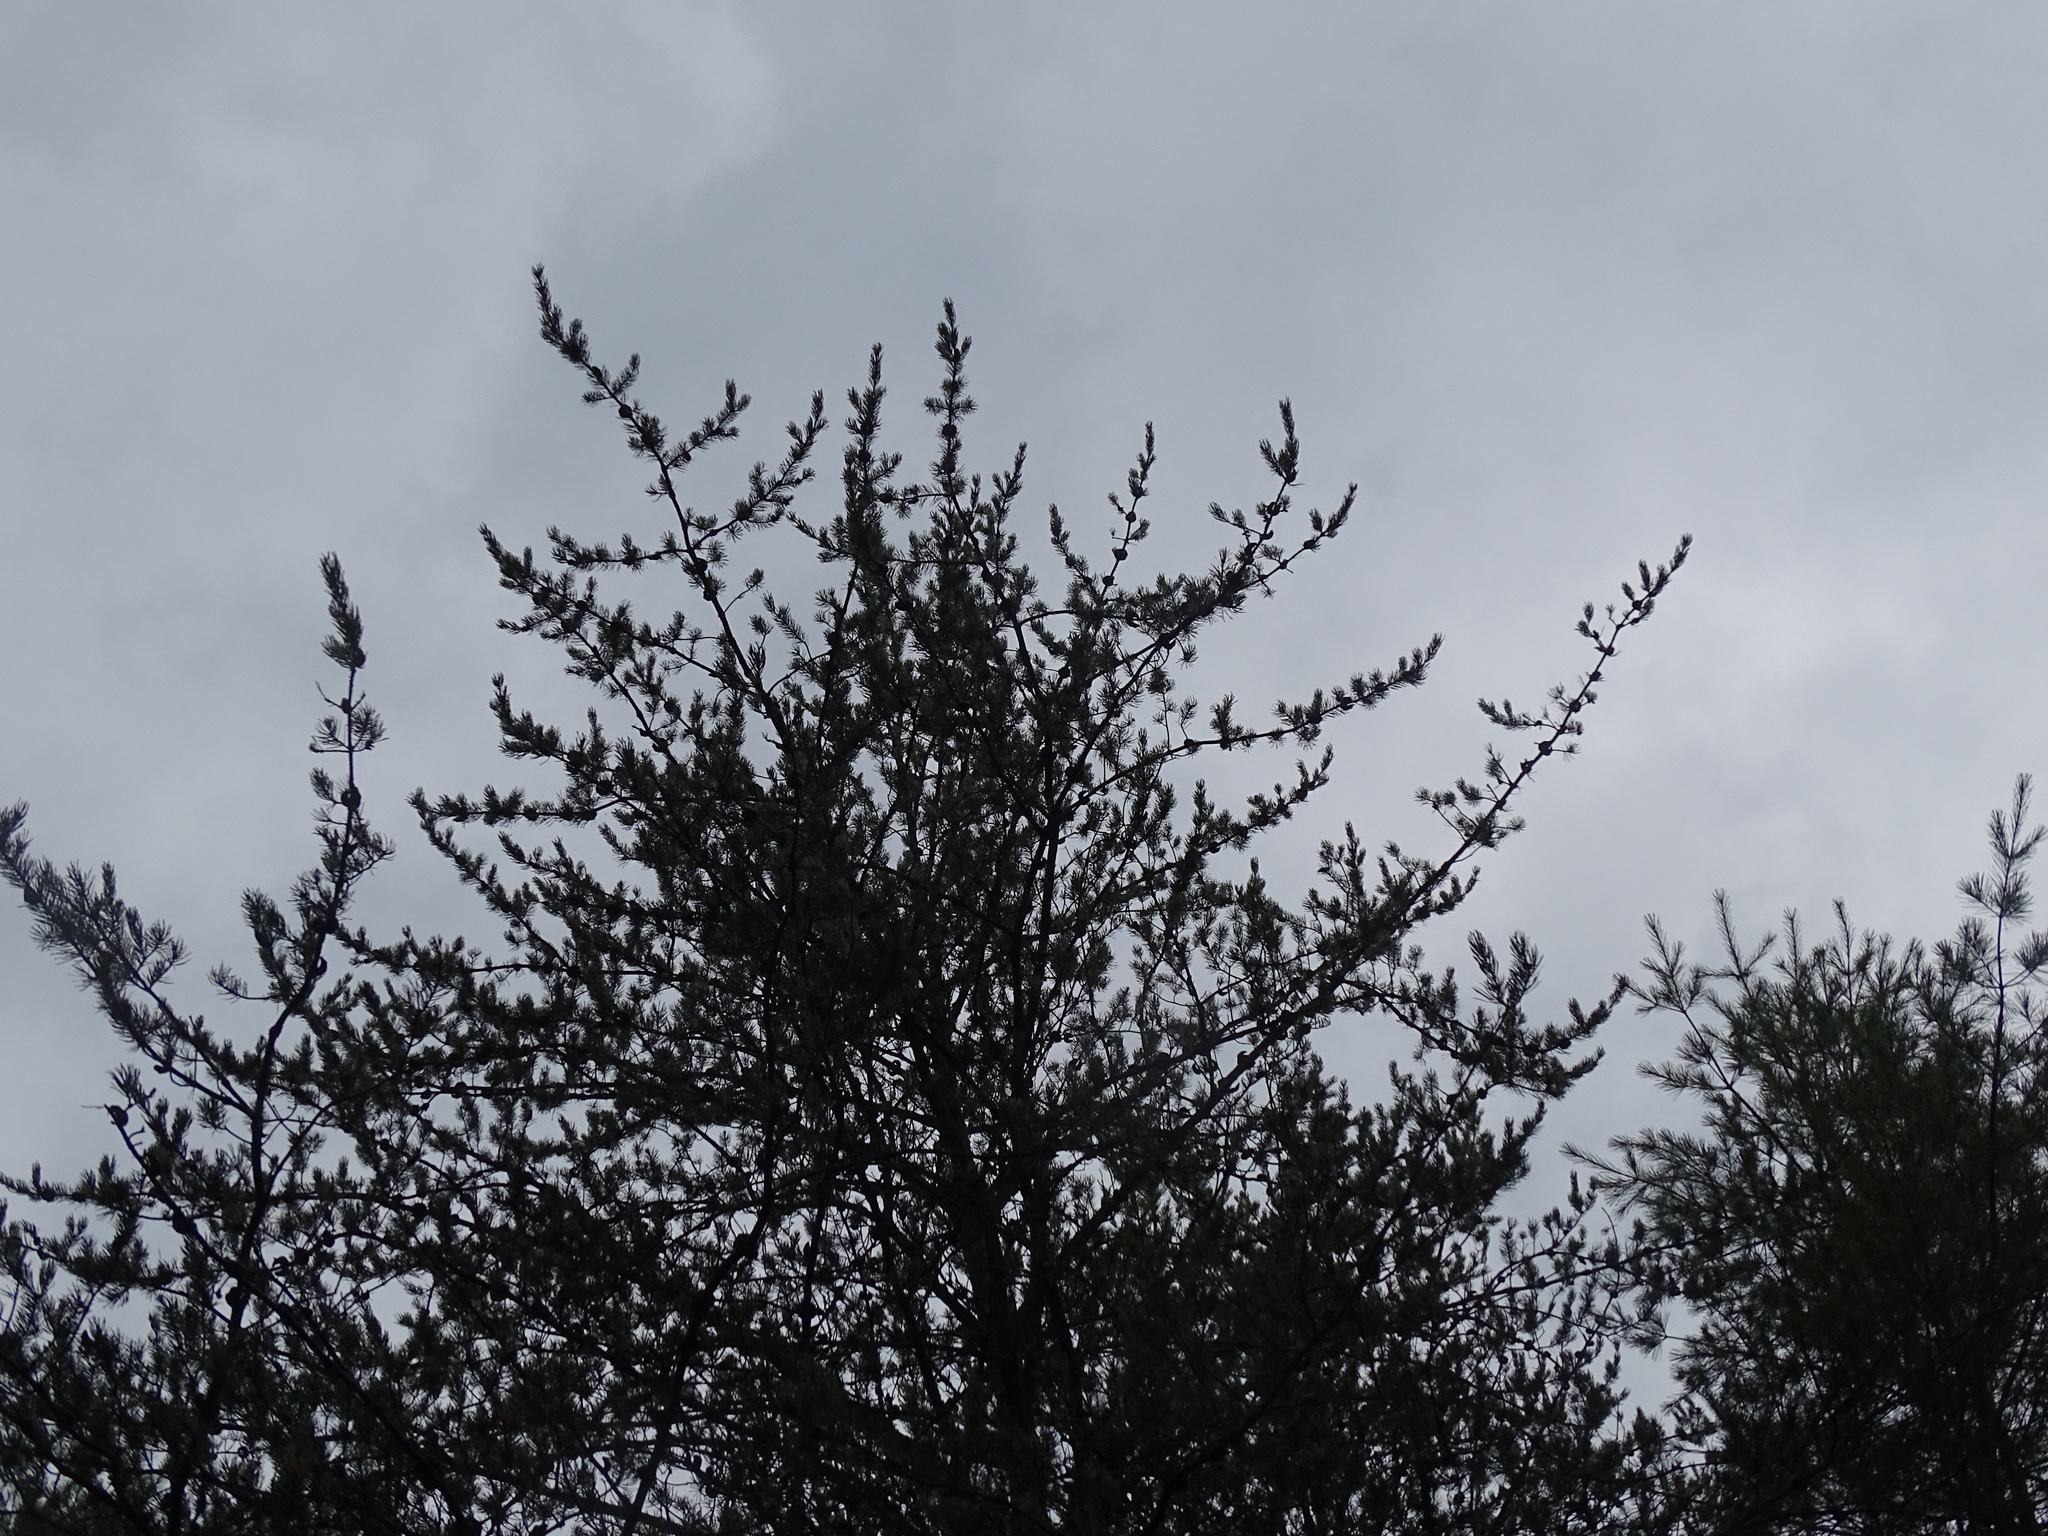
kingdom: Plantae
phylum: Tracheophyta
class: Pinopsida
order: Pinales
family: Pinaceae
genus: Pinus
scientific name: Pinus banksiana
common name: Jack pine
